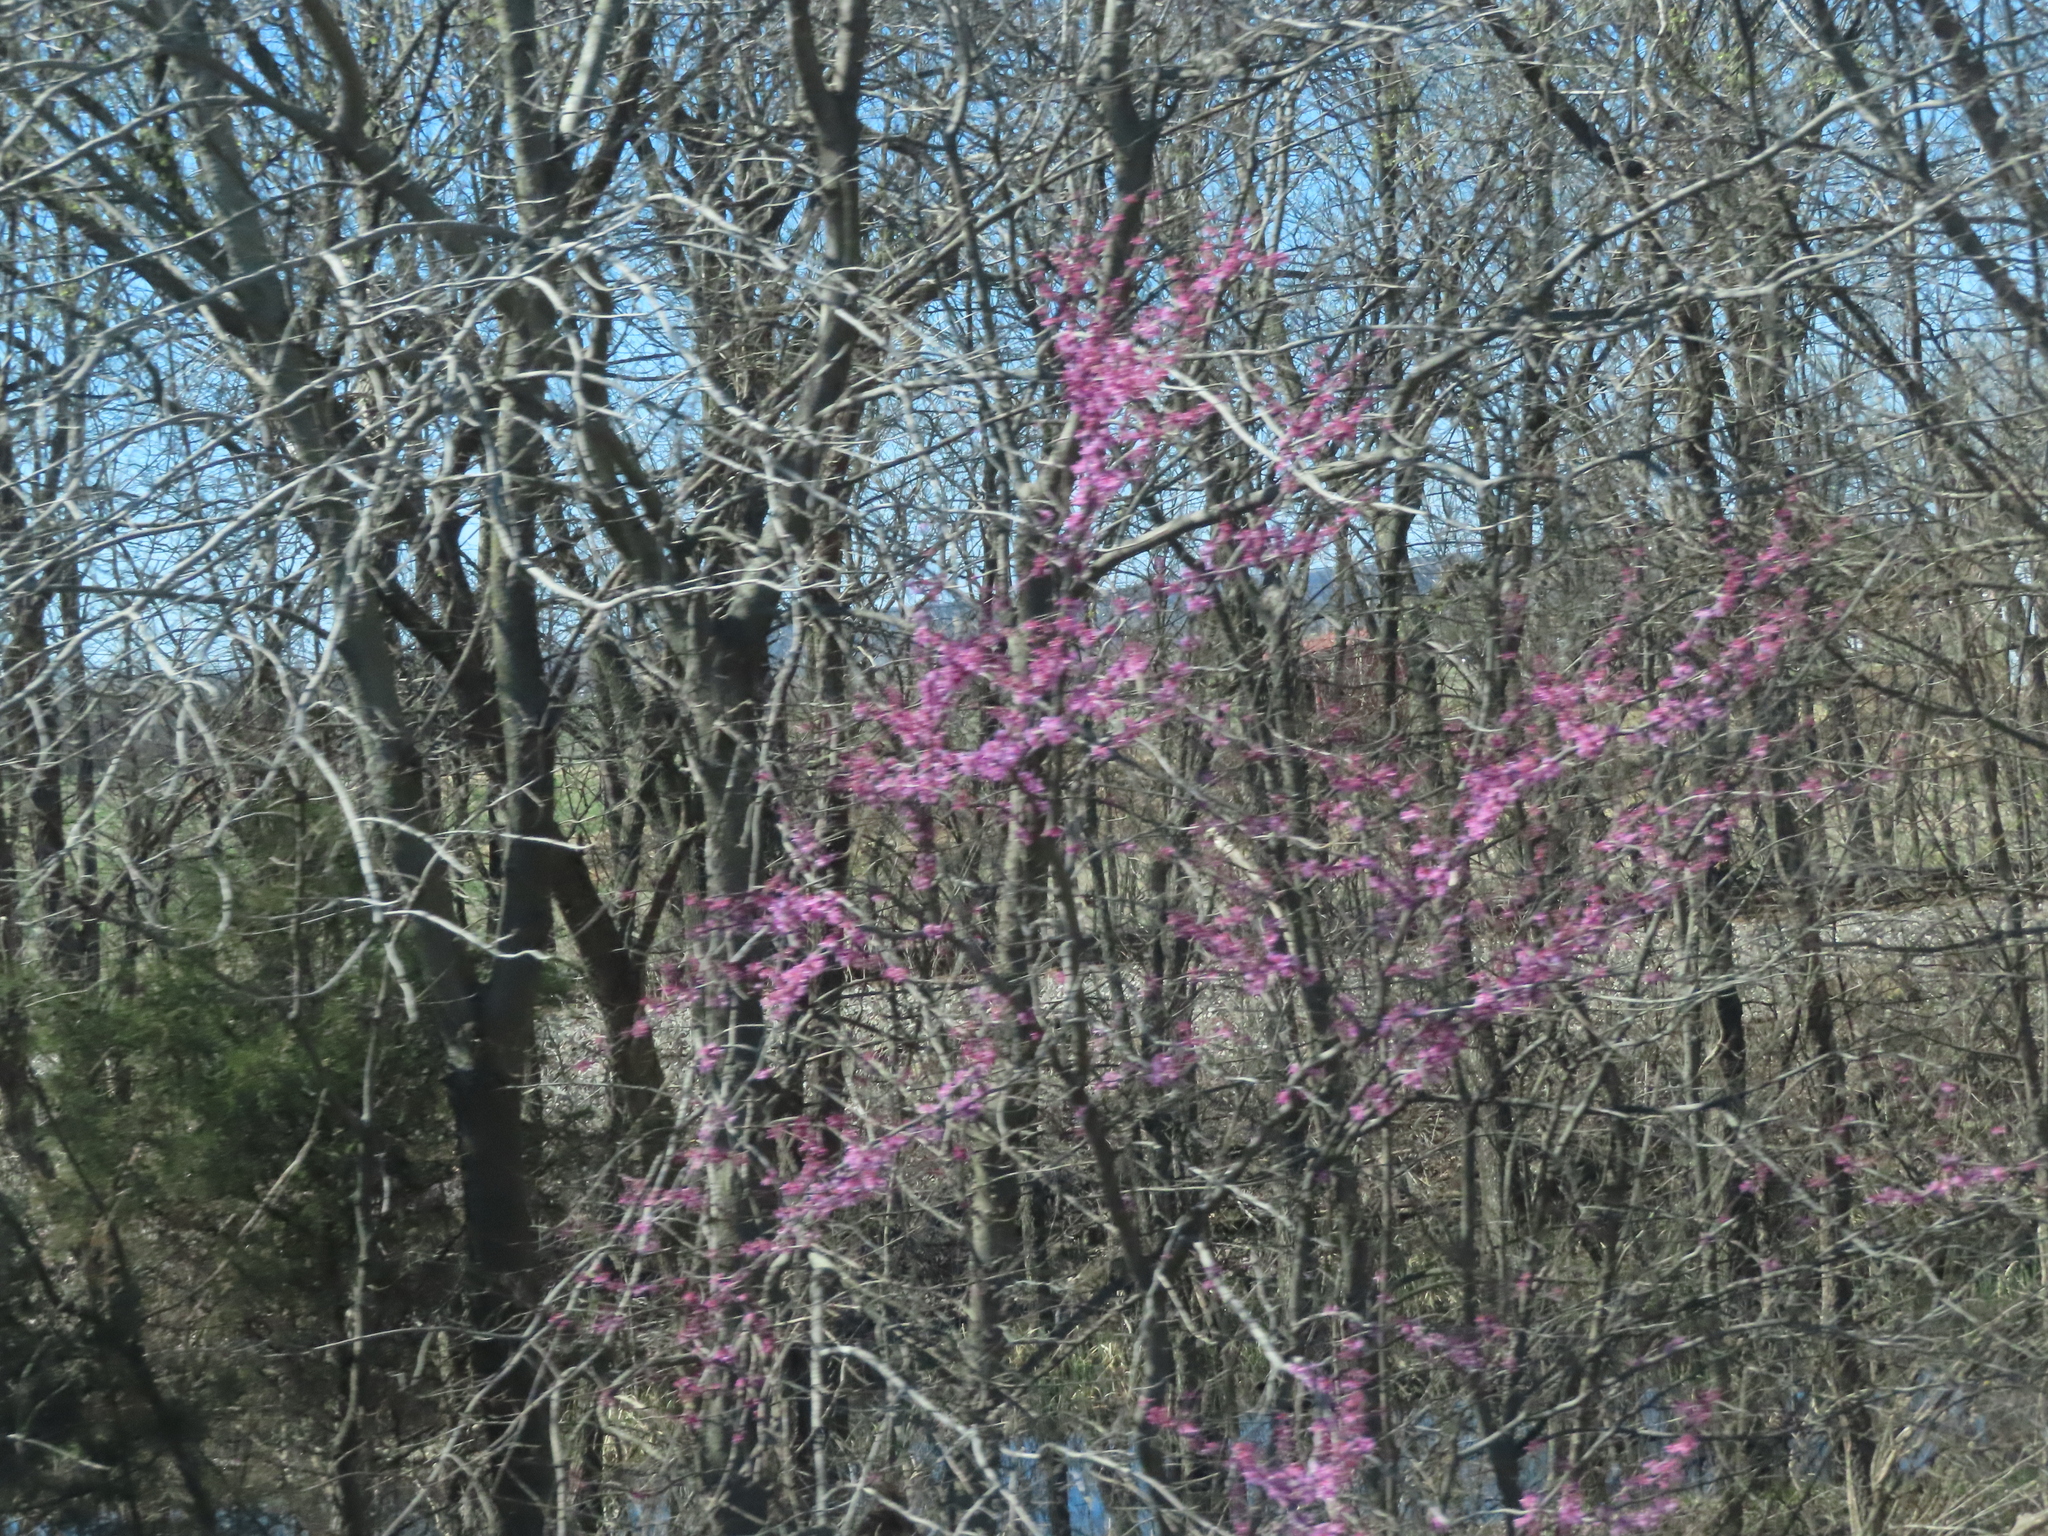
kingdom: Plantae
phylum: Tracheophyta
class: Magnoliopsida
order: Fabales
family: Fabaceae
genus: Cercis
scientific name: Cercis canadensis
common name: Eastern redbud
